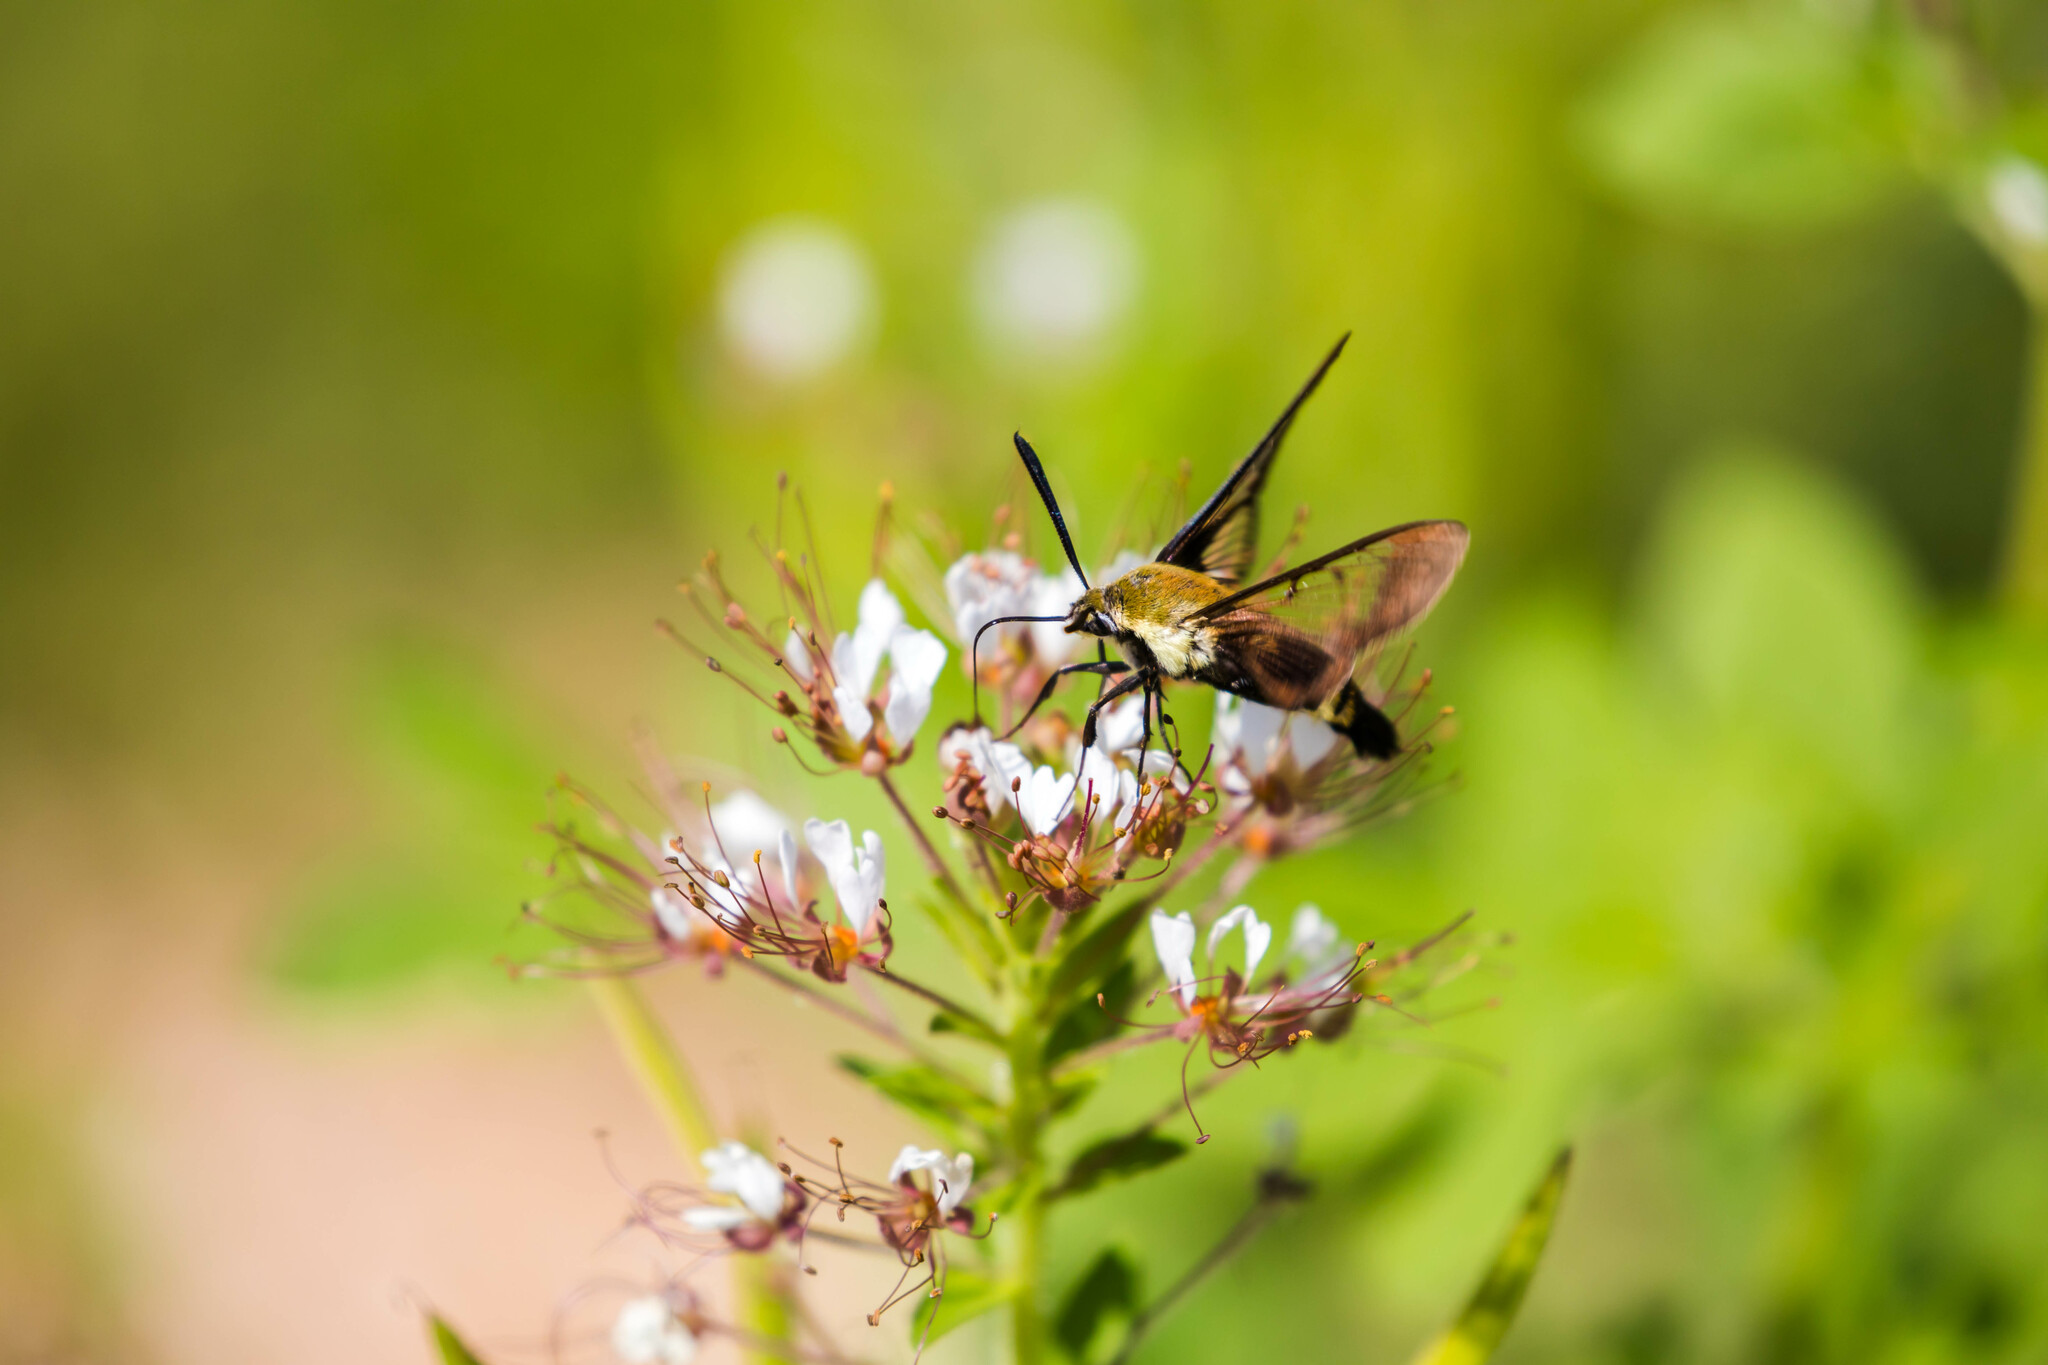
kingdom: Animalia
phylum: Arthropoda
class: Insecta
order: Lepidoptera
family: Sphingidae
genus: Hemaris
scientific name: Hemaris diffinis
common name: Bumblebee moth
